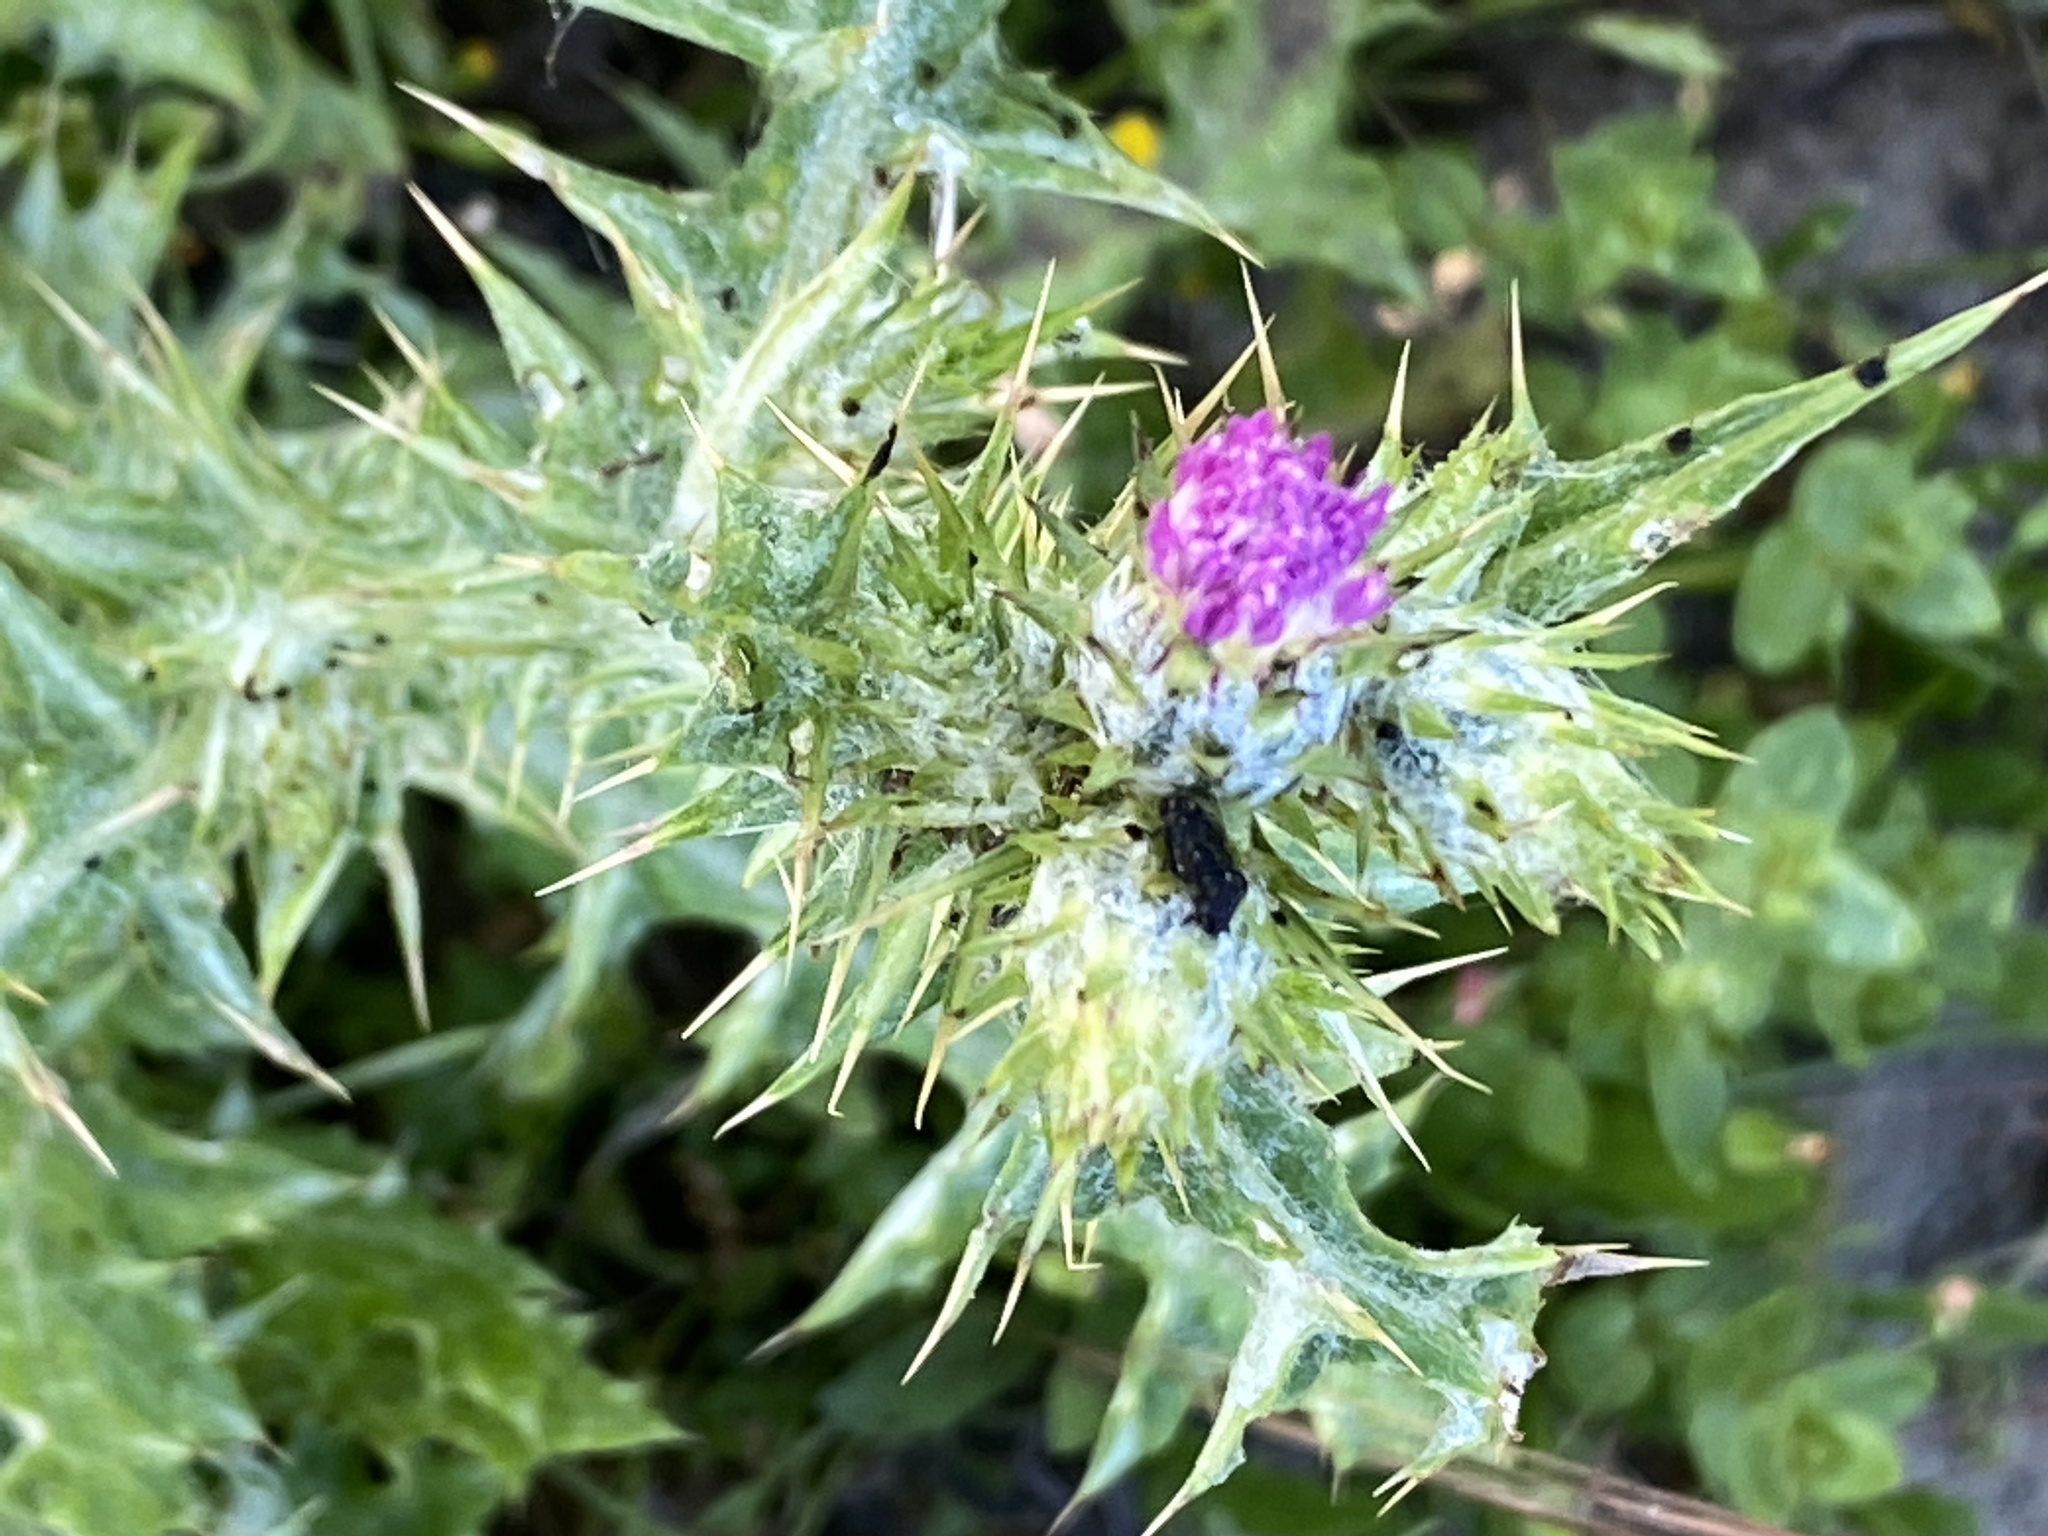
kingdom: Plantae
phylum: Tracheophyta
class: Magnoliopsida
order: Asterales
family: Asteraceae
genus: Carduus
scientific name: Carduus pycnocephalus
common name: Plymouth thistle
